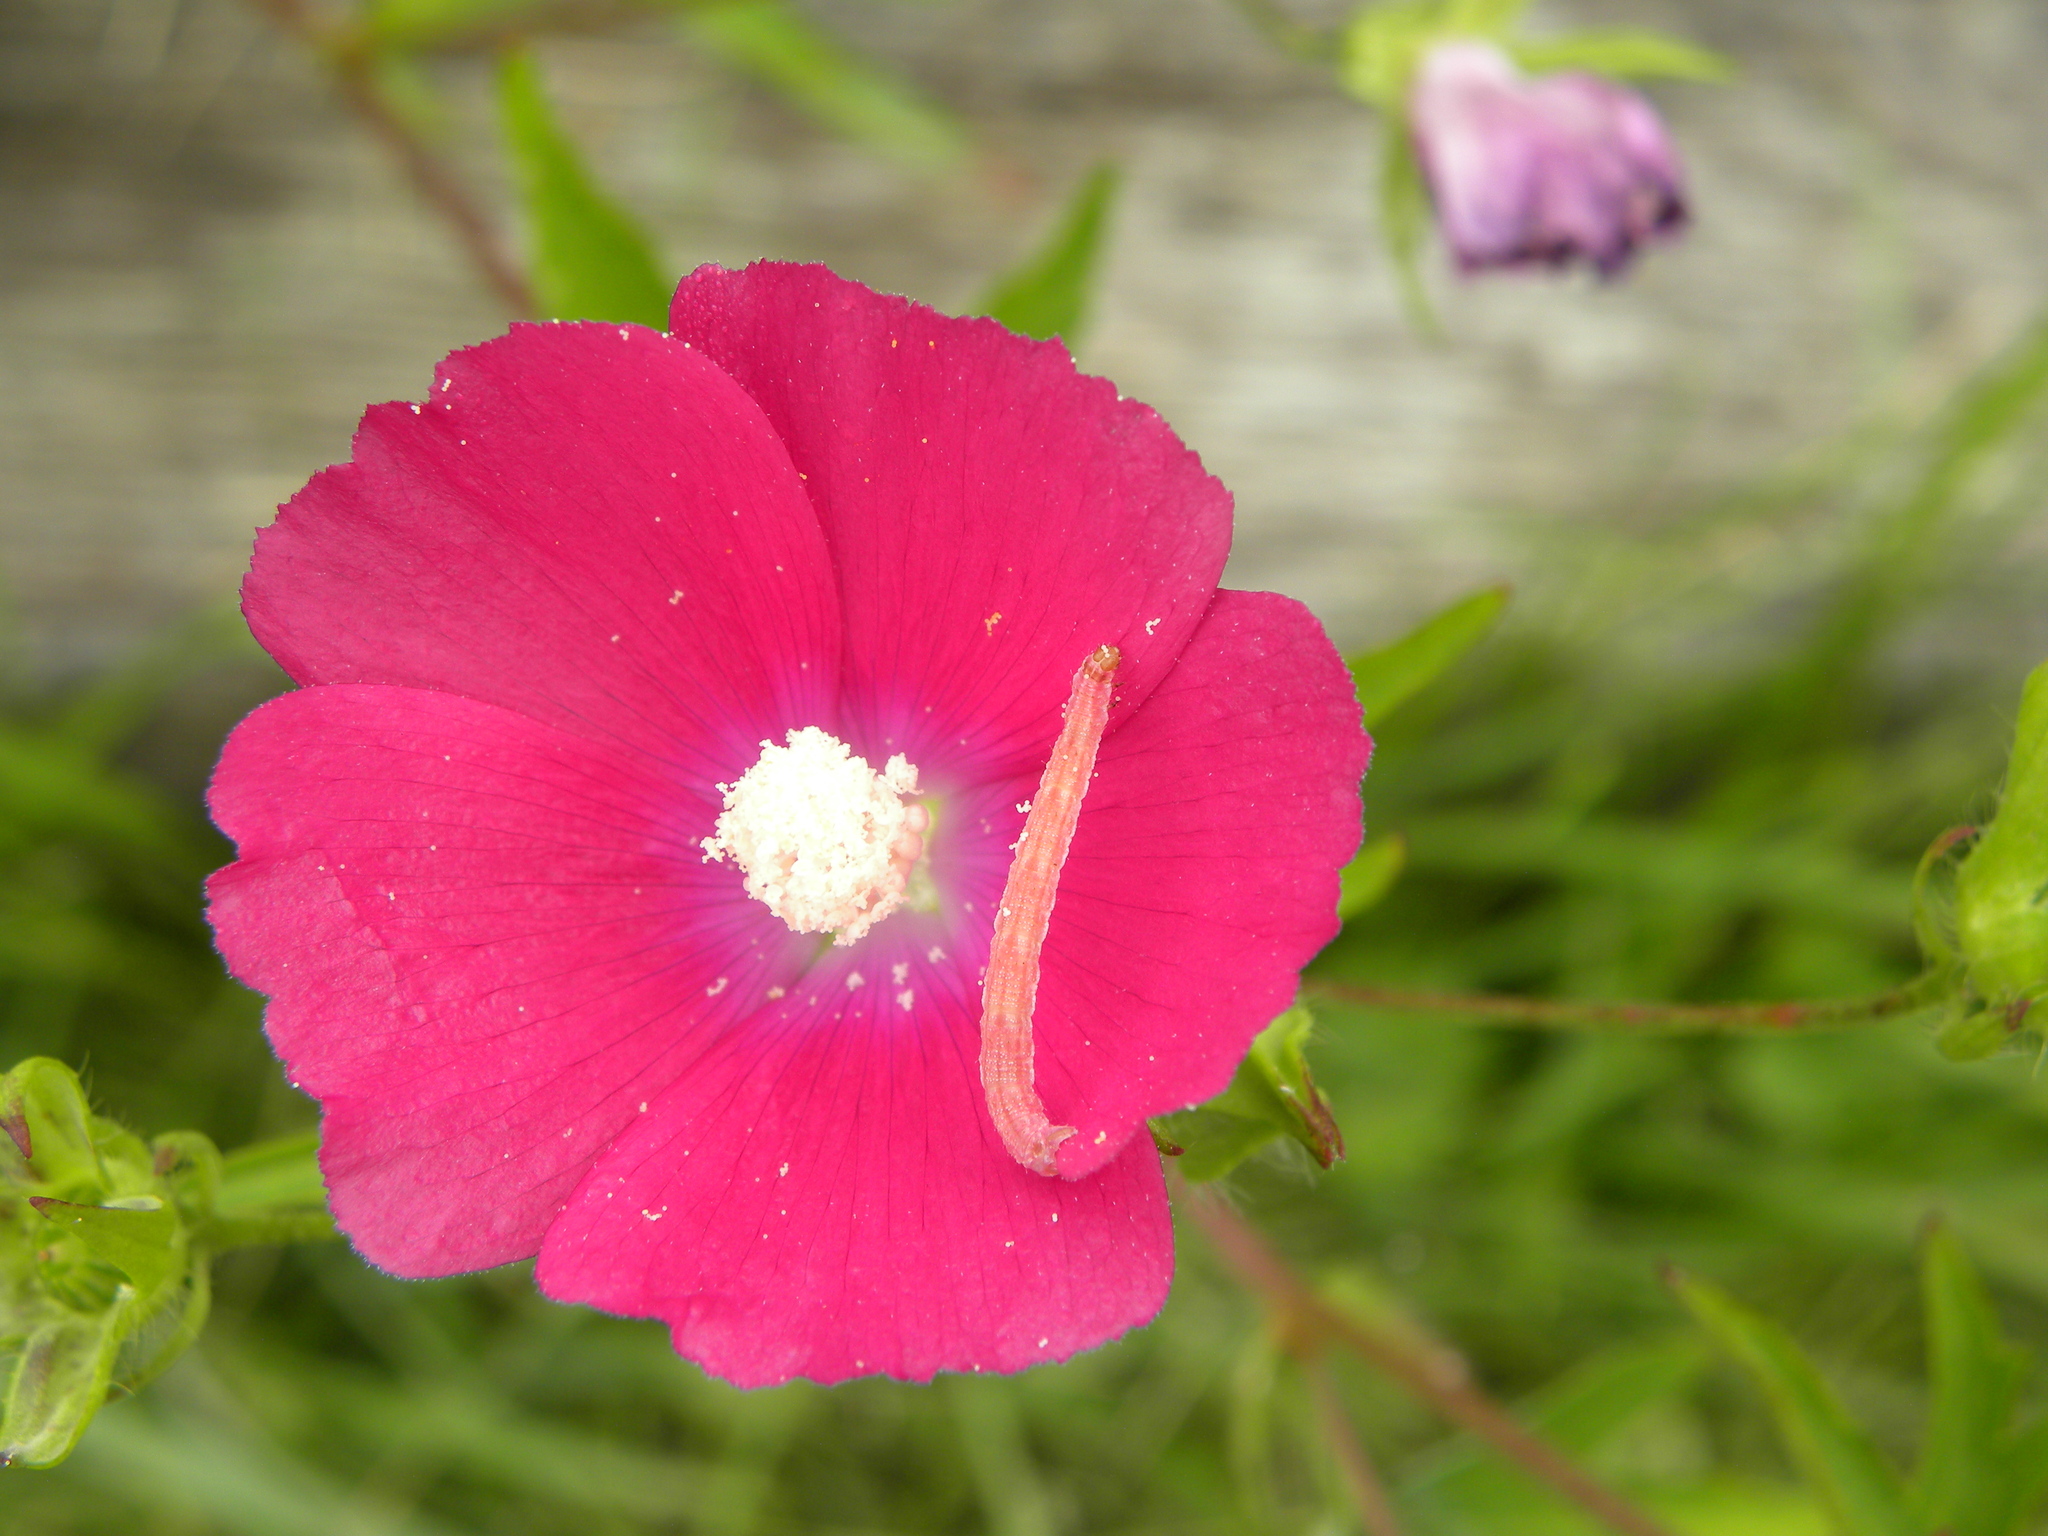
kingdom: Animalia
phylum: Arthropoda
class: Insecta
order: Lepidoptera
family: Geometridae
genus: Eupithecia
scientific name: Eupithecia miserulata
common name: Common eupithecia
